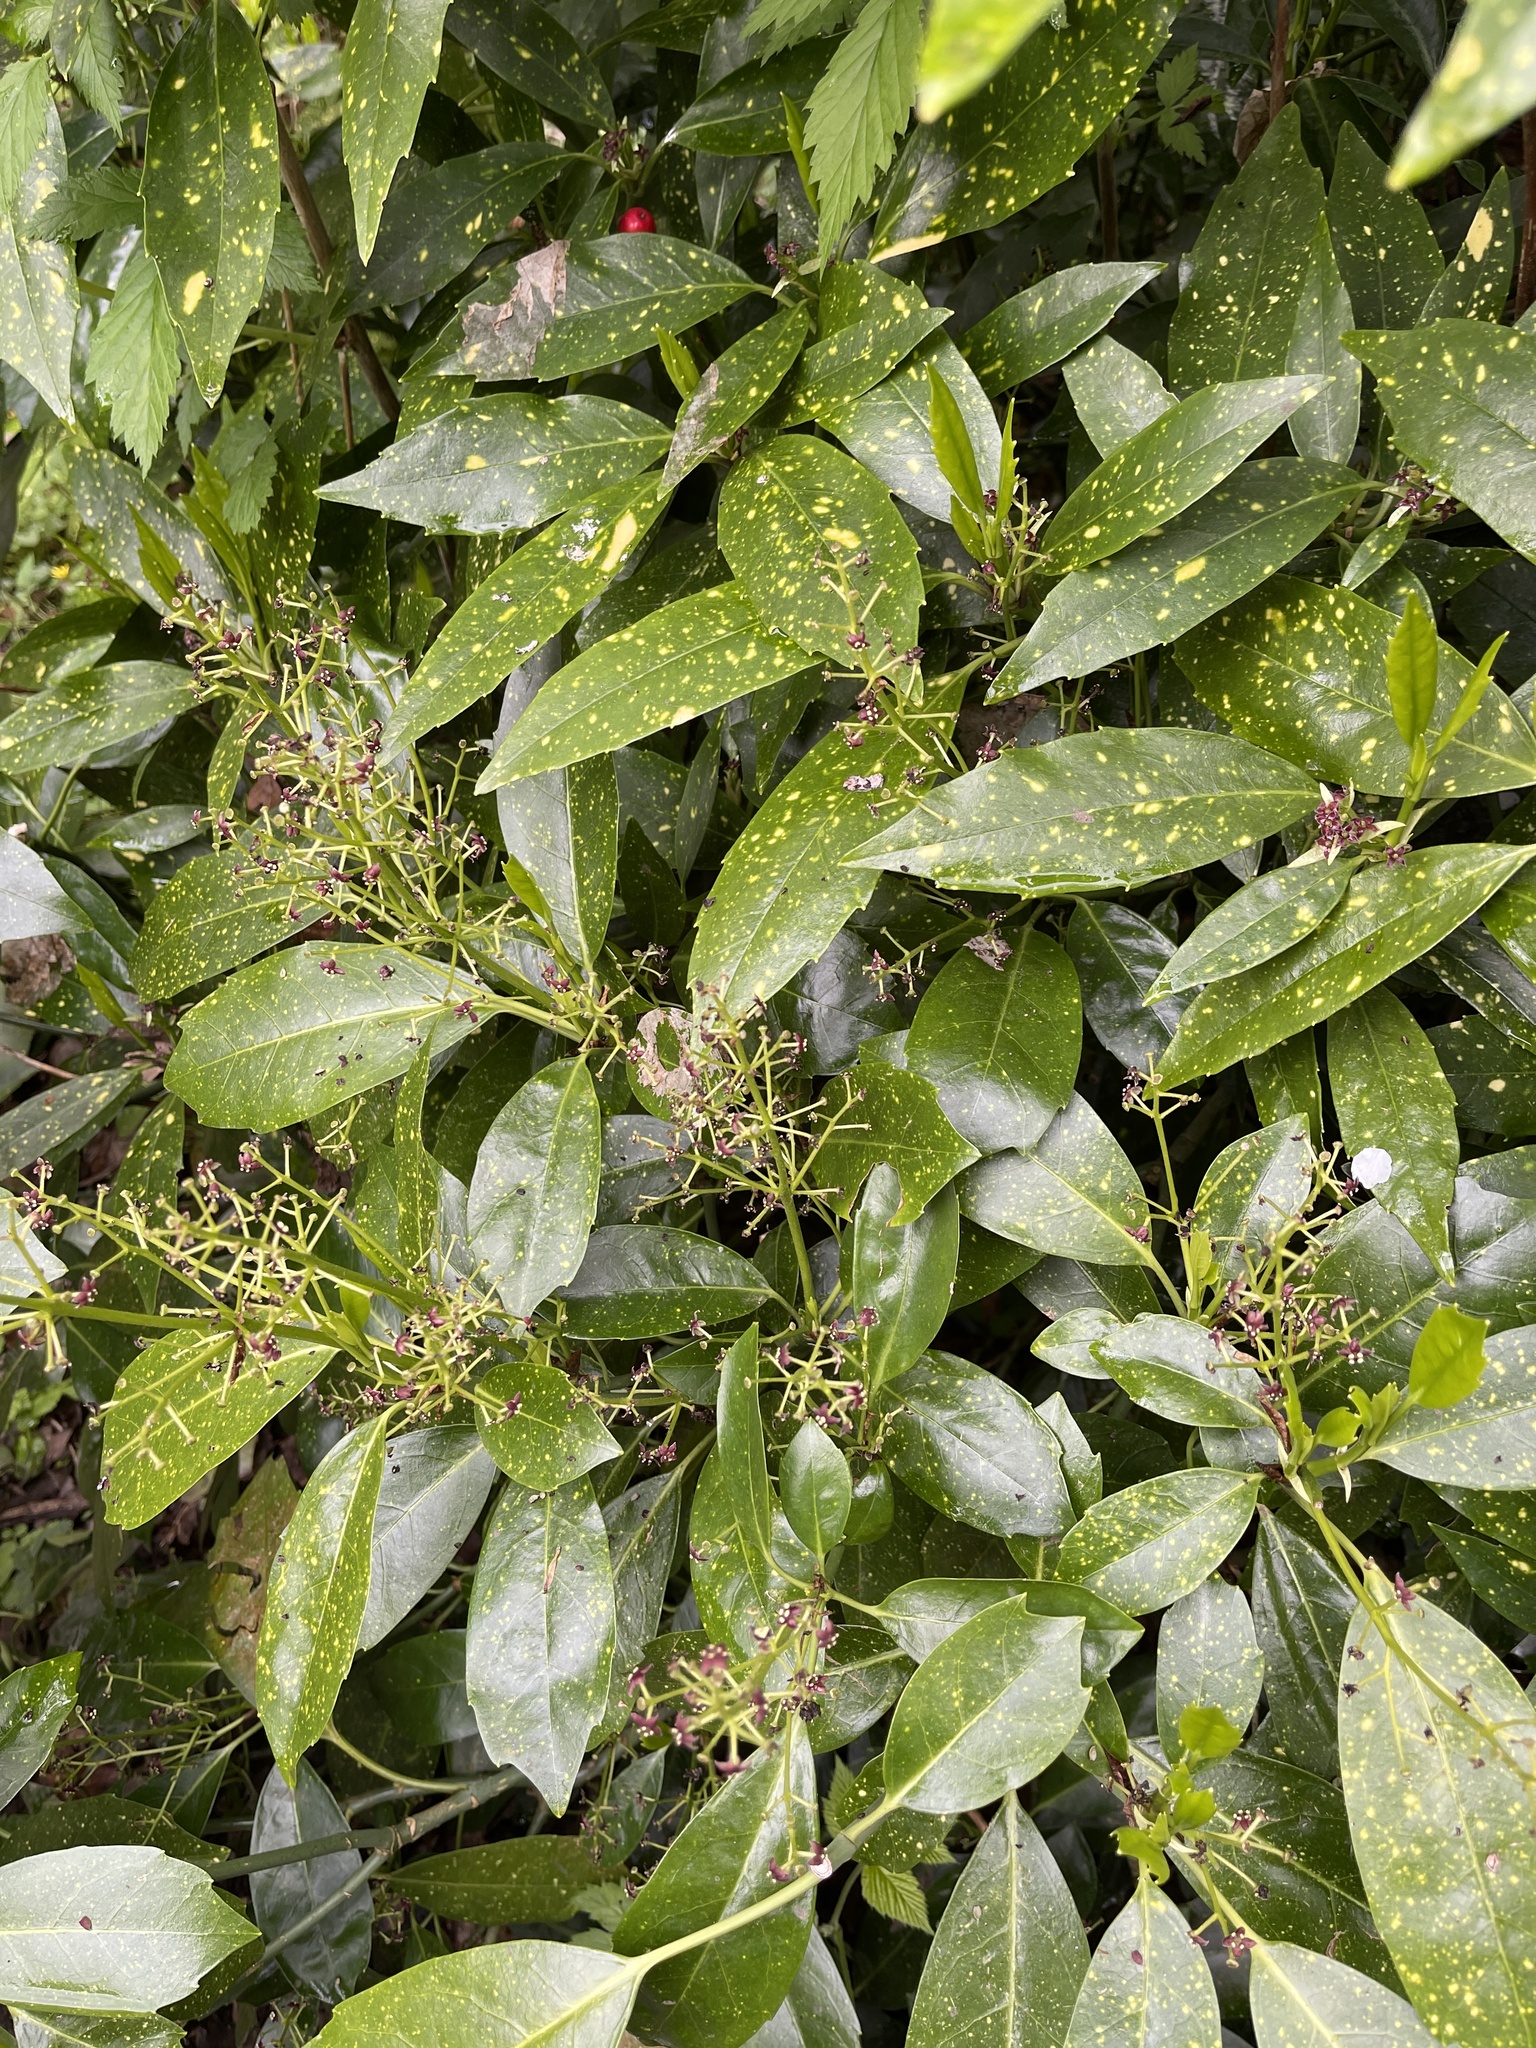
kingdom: Plantae
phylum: Tracheophyta
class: Magnoliopsida
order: Garryales
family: Garryaceae
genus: Aucuba
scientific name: Aucuba japonica
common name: Spotted-laurel
